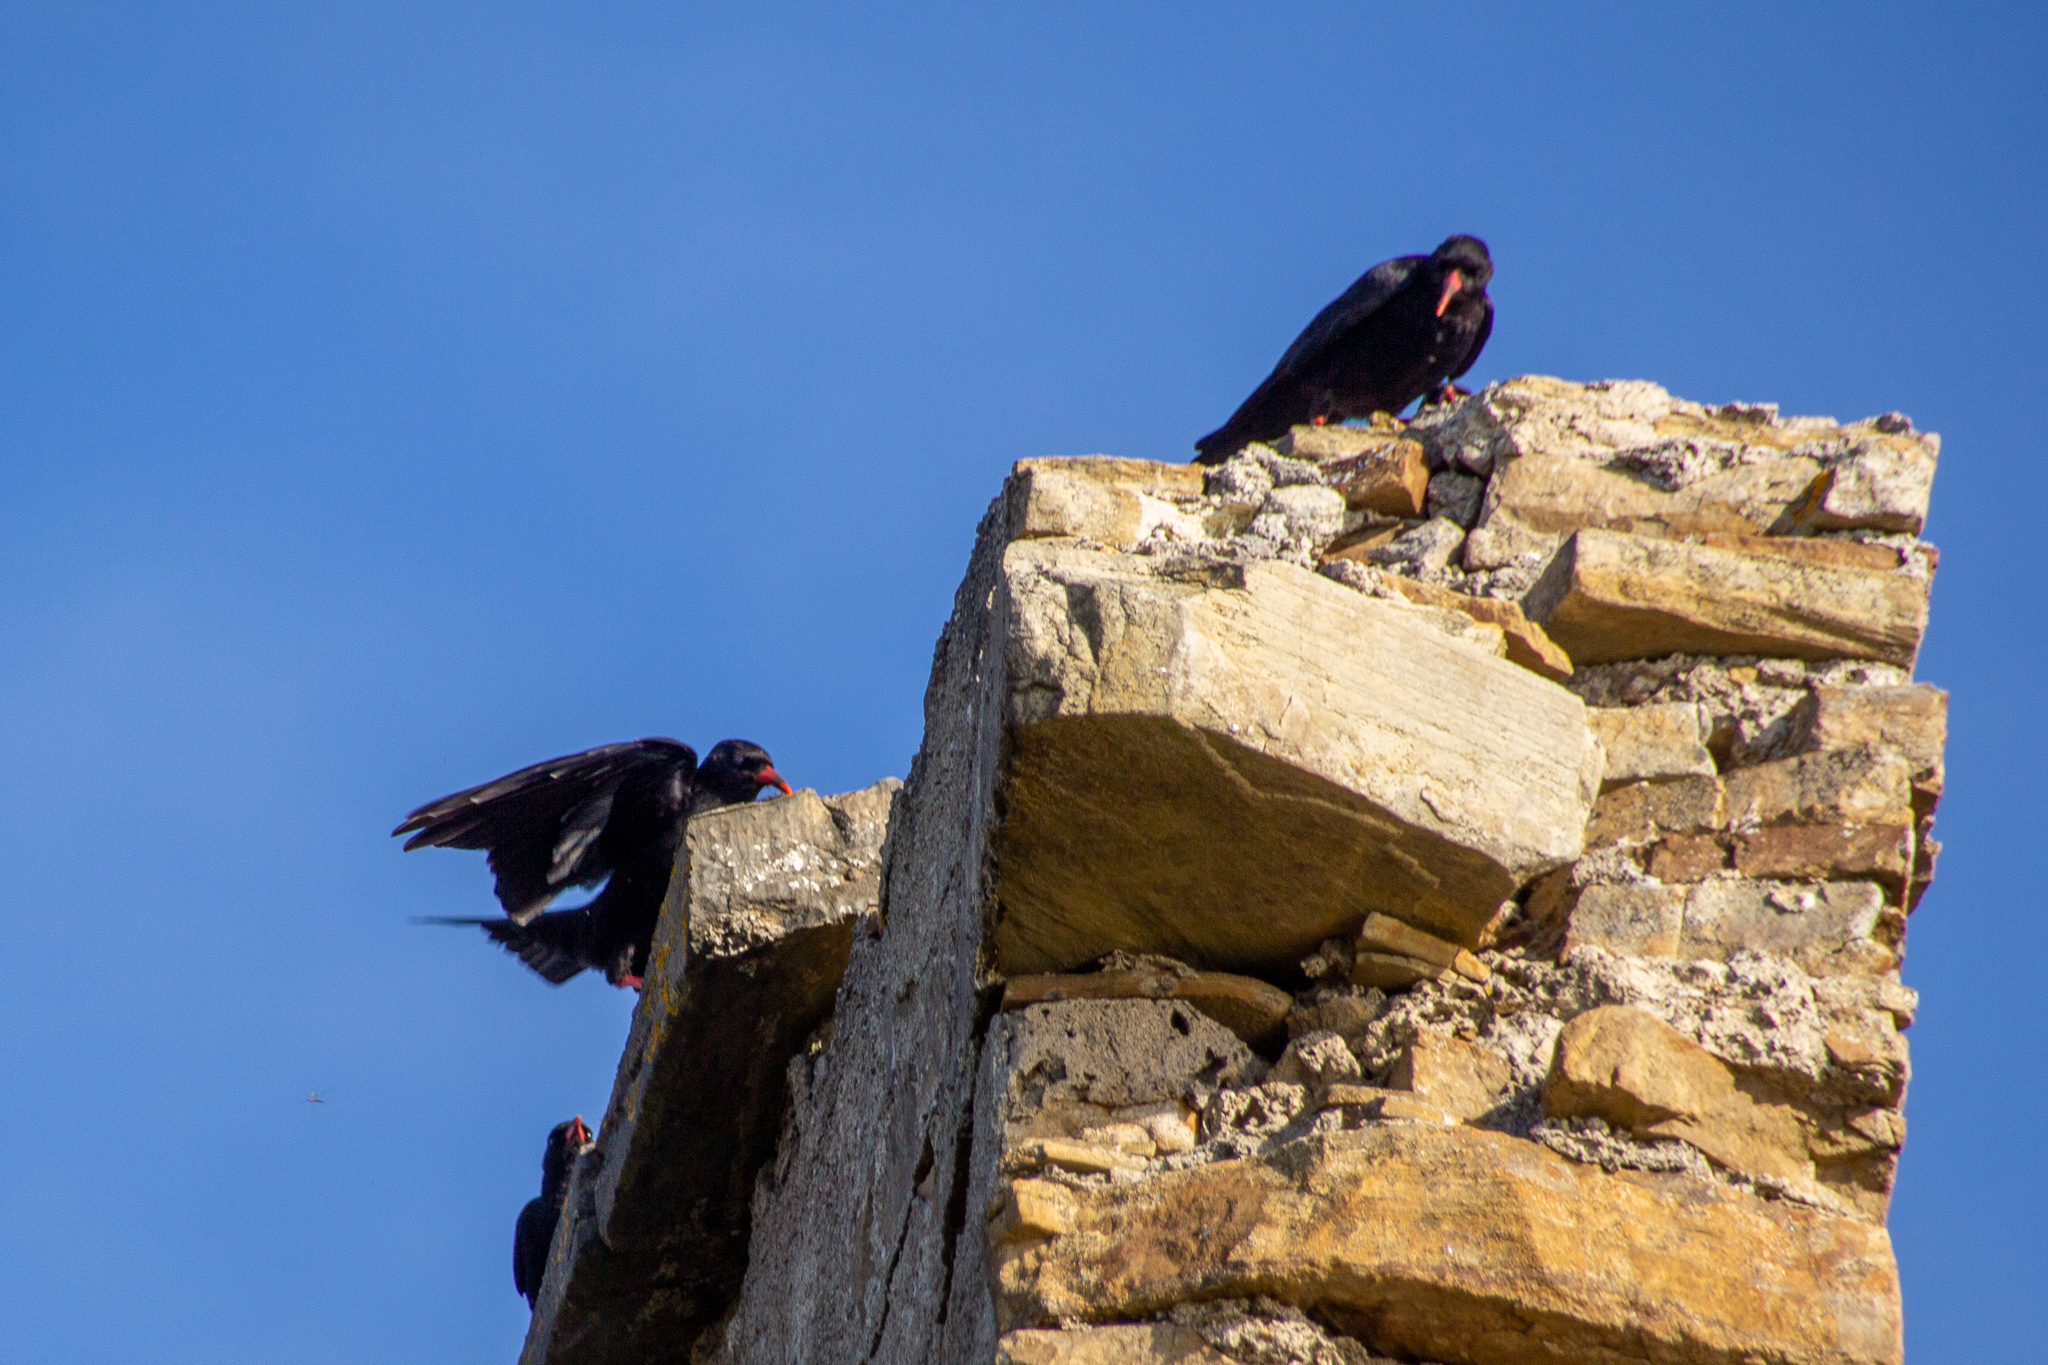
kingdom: Animalia
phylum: Chordata
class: Aves
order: Passeriformes
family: Corvidae
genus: Pyrrhocorax
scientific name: Pyrrhocorax pyrrhocorax
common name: Red-billed chough
